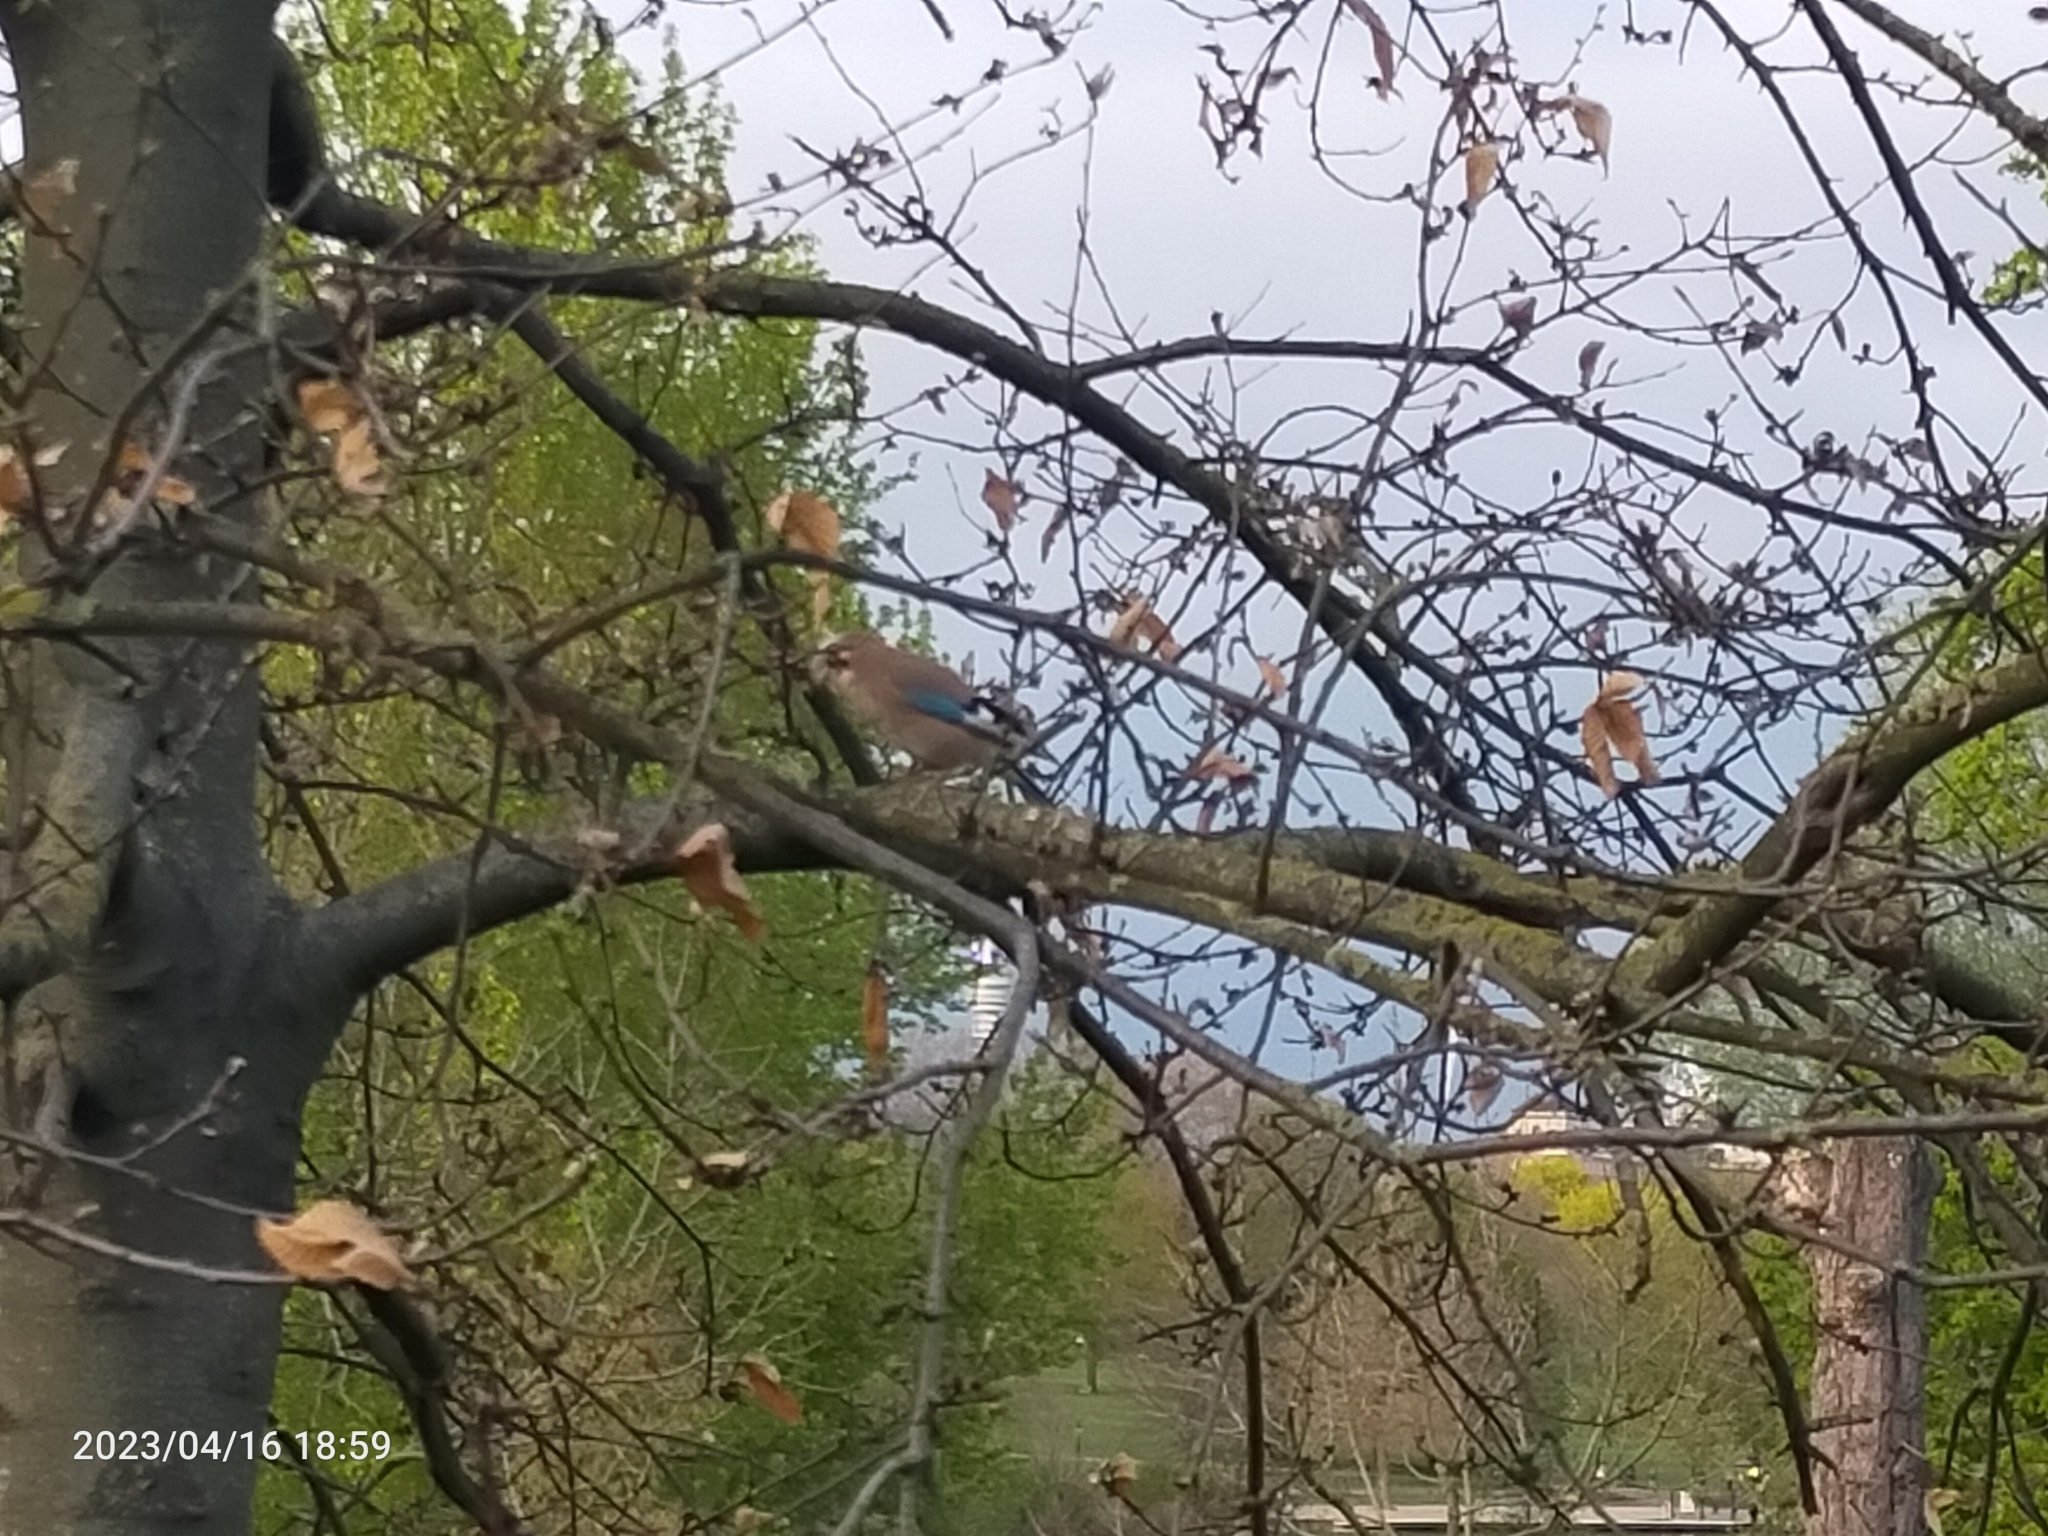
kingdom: Animalia
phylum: Chordata
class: Aves
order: Passeriformes
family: Corvidae
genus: Garrulus
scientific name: Garrulus glandarius
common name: Eurasian jay
